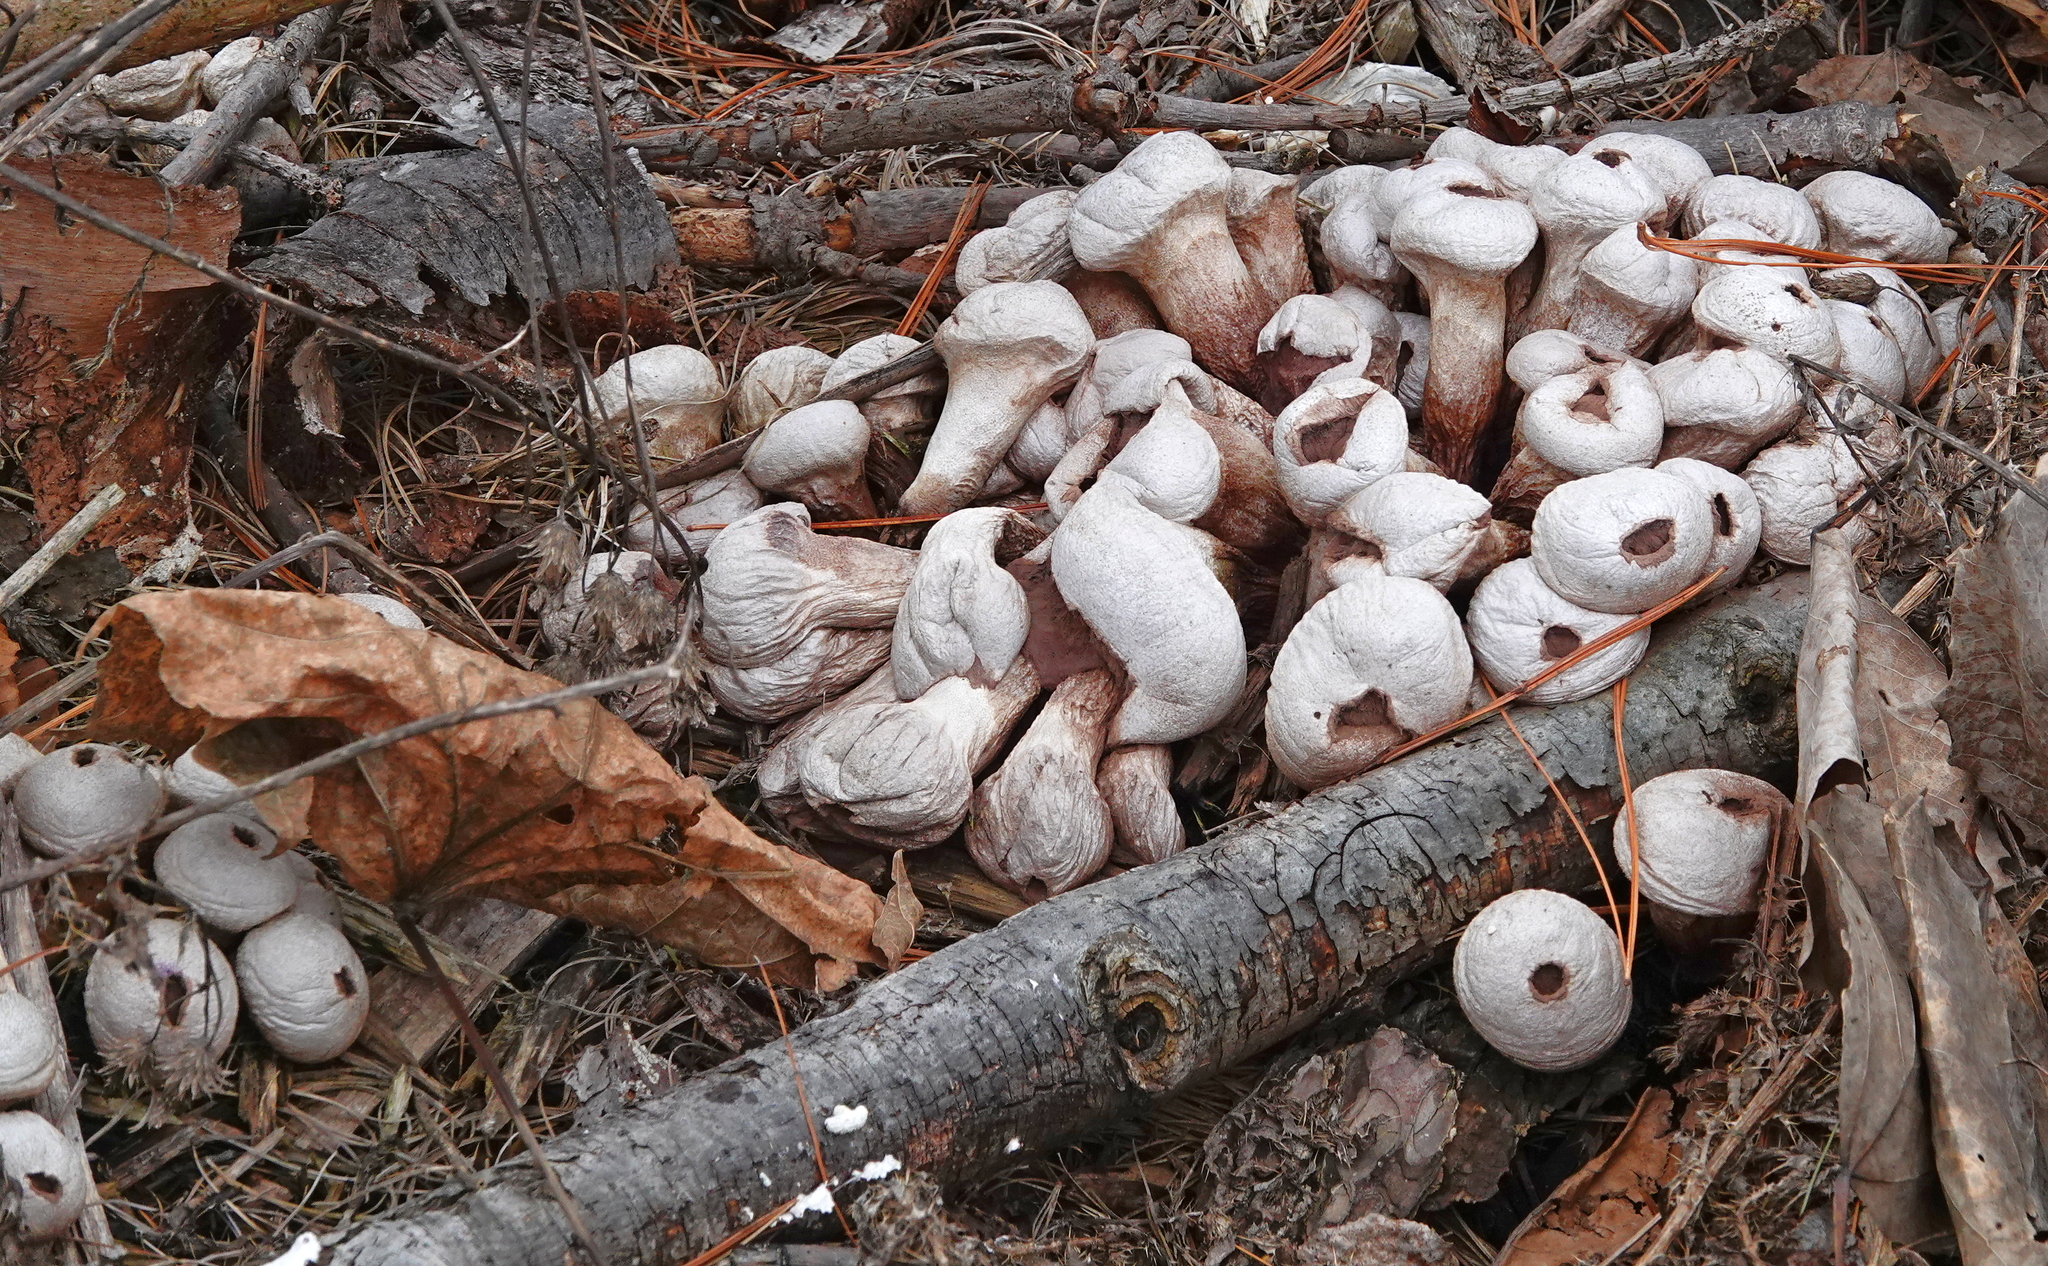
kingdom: Fungi
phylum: Basidiomycota
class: Agaricomycetes
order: Agaricales
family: Lycoperdaceae
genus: Lycoperdon
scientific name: Lycoperdon perlatum
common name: Common puffball
